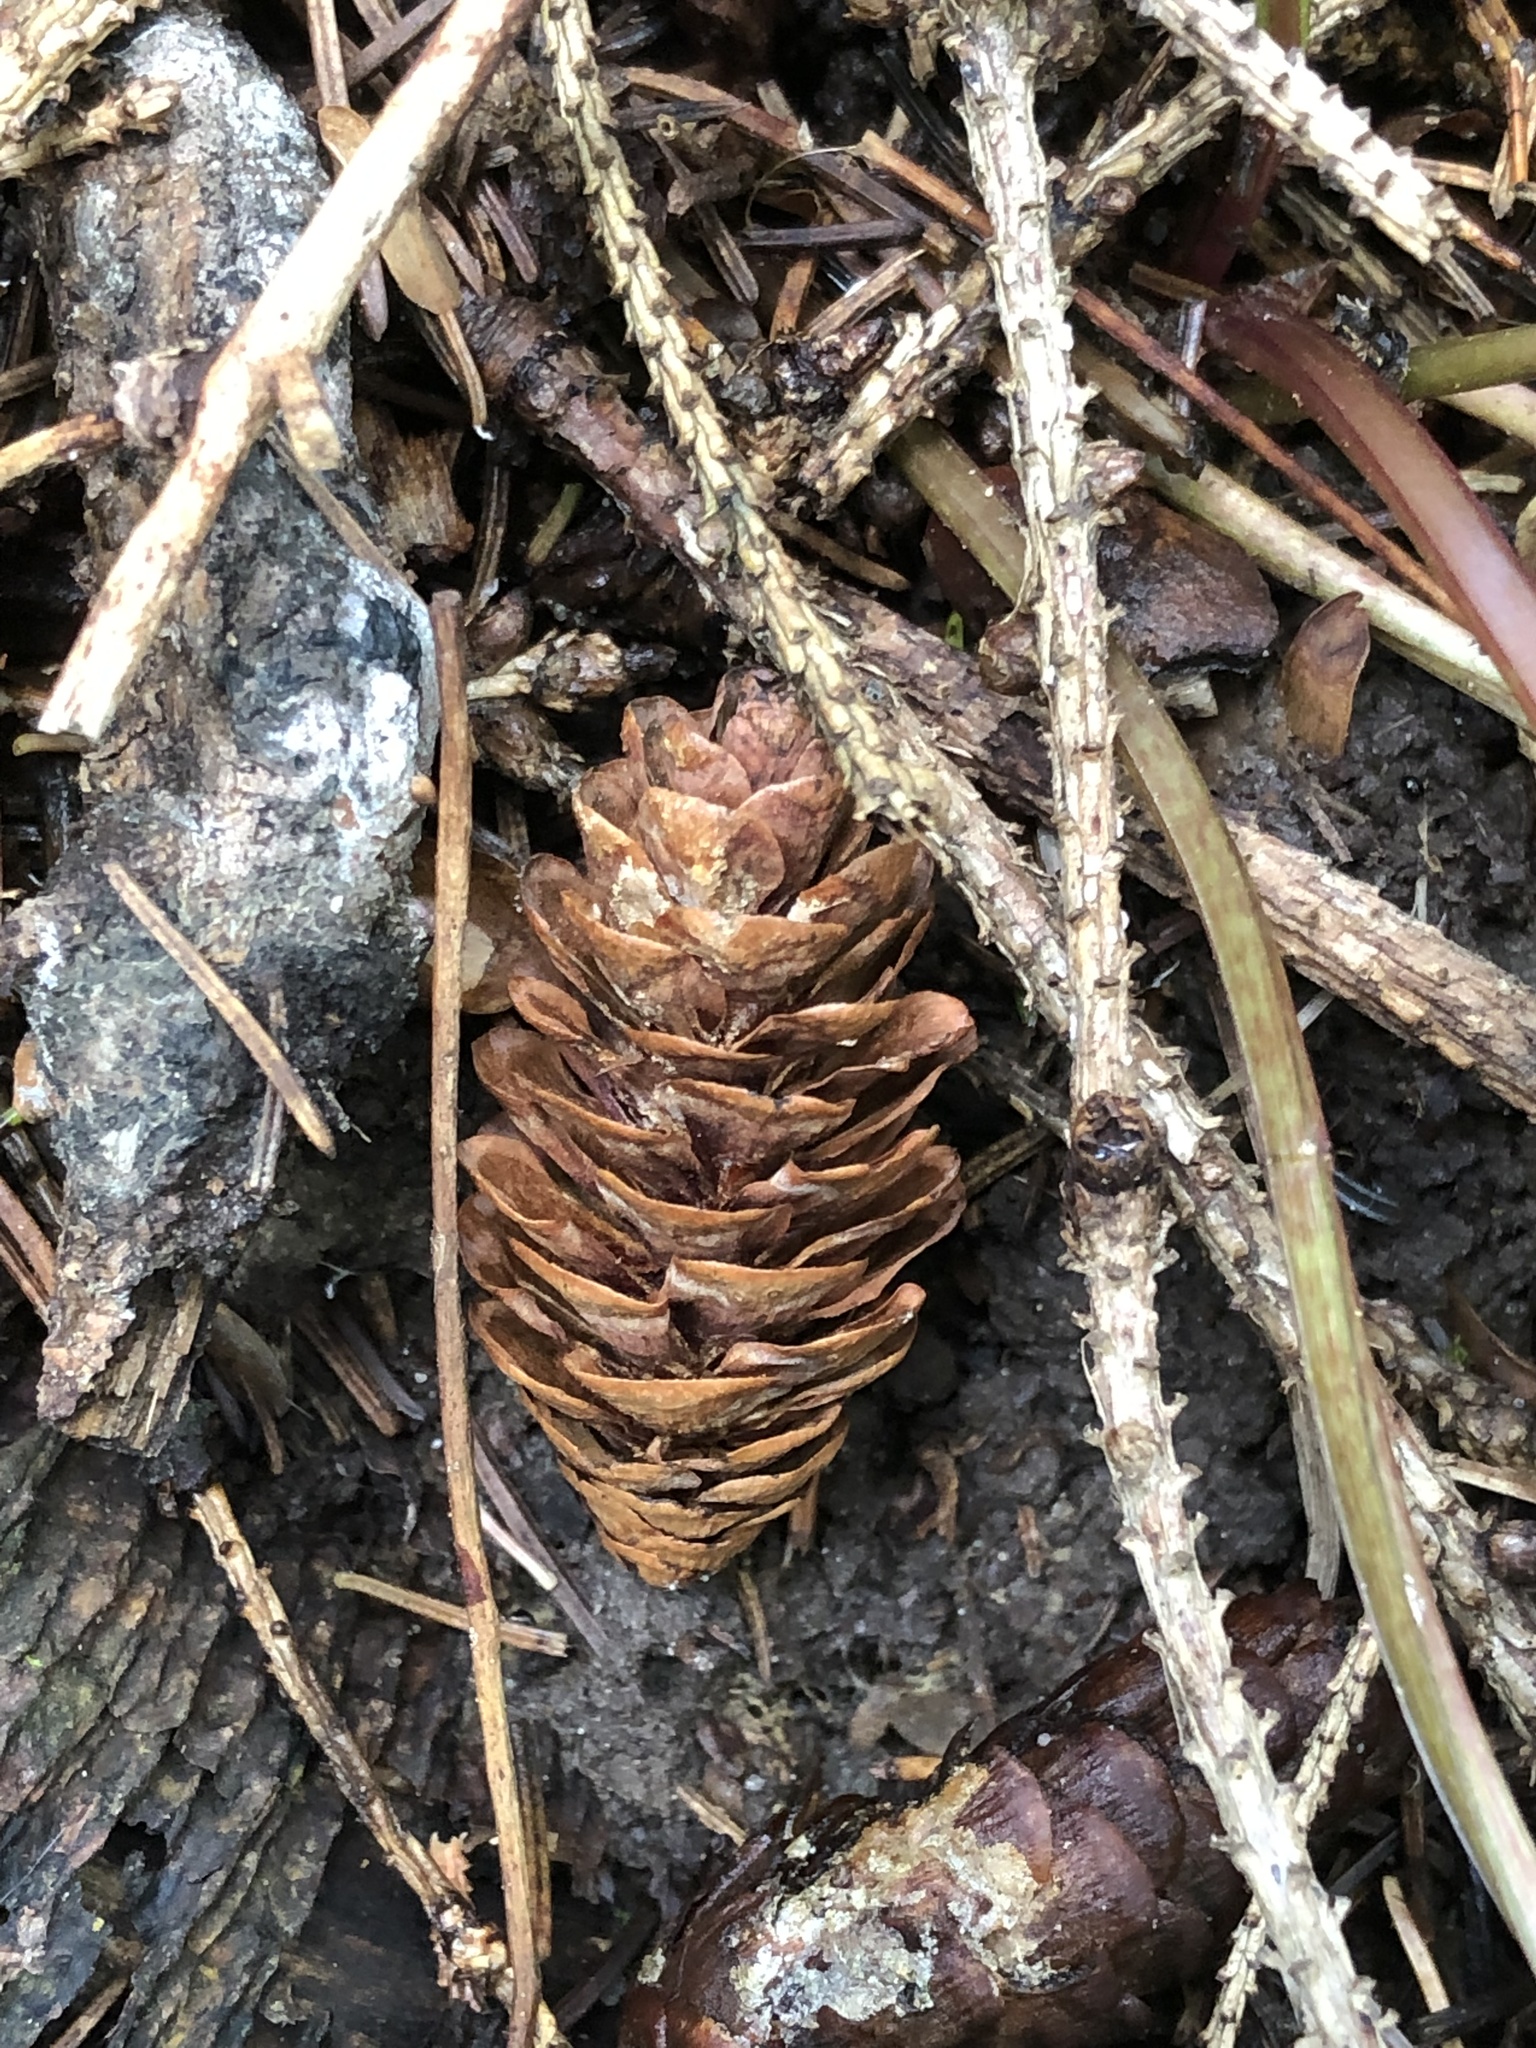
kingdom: Plantae
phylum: Tracheophyta
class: Pinopsida
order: Pinales
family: Pinaceae
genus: Picea
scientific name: Picea glauca
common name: White spruce
